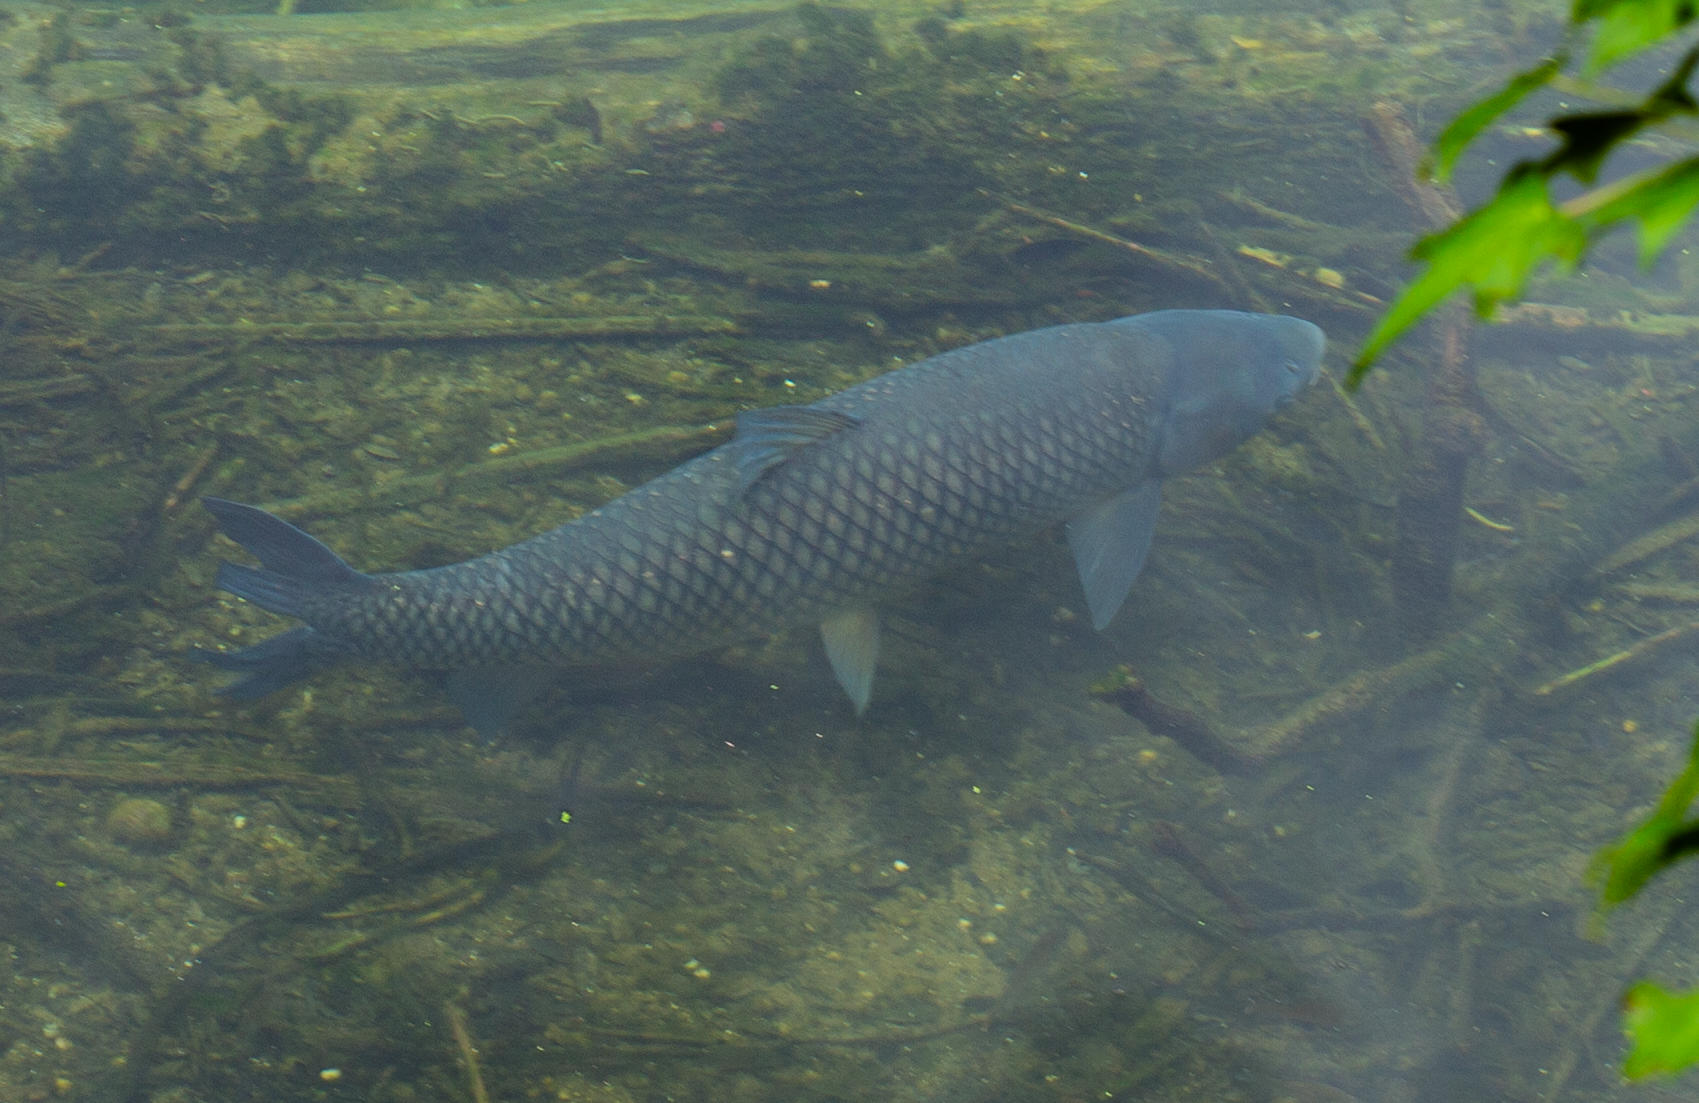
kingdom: Animalia
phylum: Chordata
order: Cypriniformes
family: Cyprinidae
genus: Ctenopharyngodon
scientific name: Ctenopharyngodon idella
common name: Grass carp
